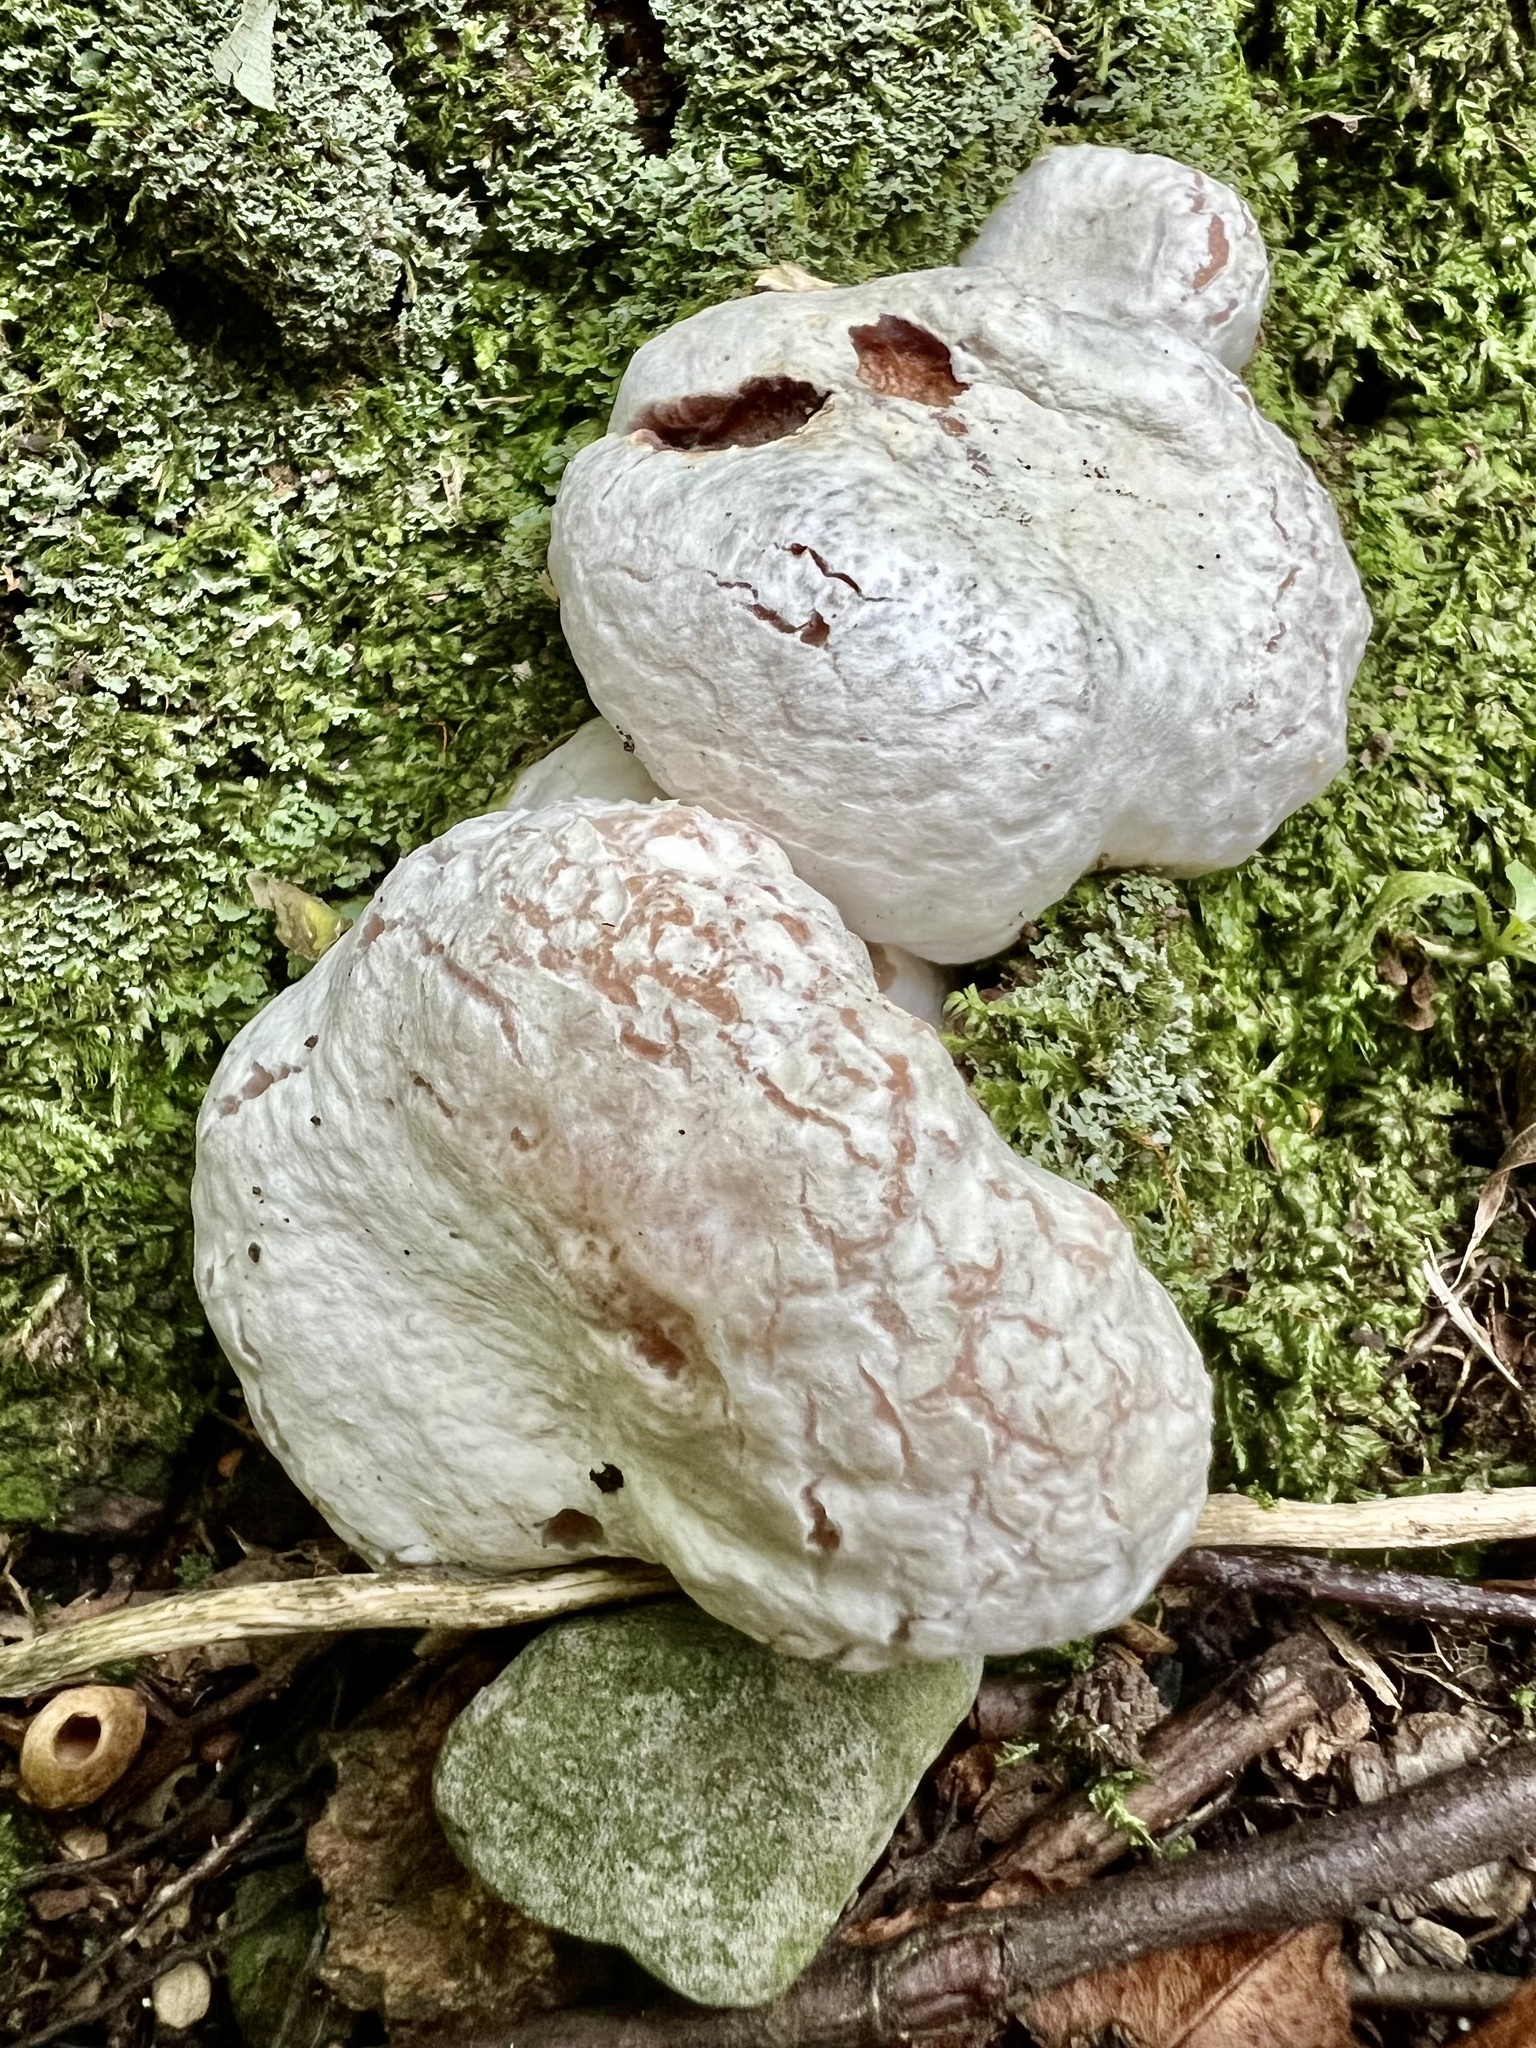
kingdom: Fungi
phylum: Basidiomycota
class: Agaricomycetes
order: Agaricales
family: Entolomataceae
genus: Entoloma
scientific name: Entoloma abortivum
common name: Aborted entoloma
